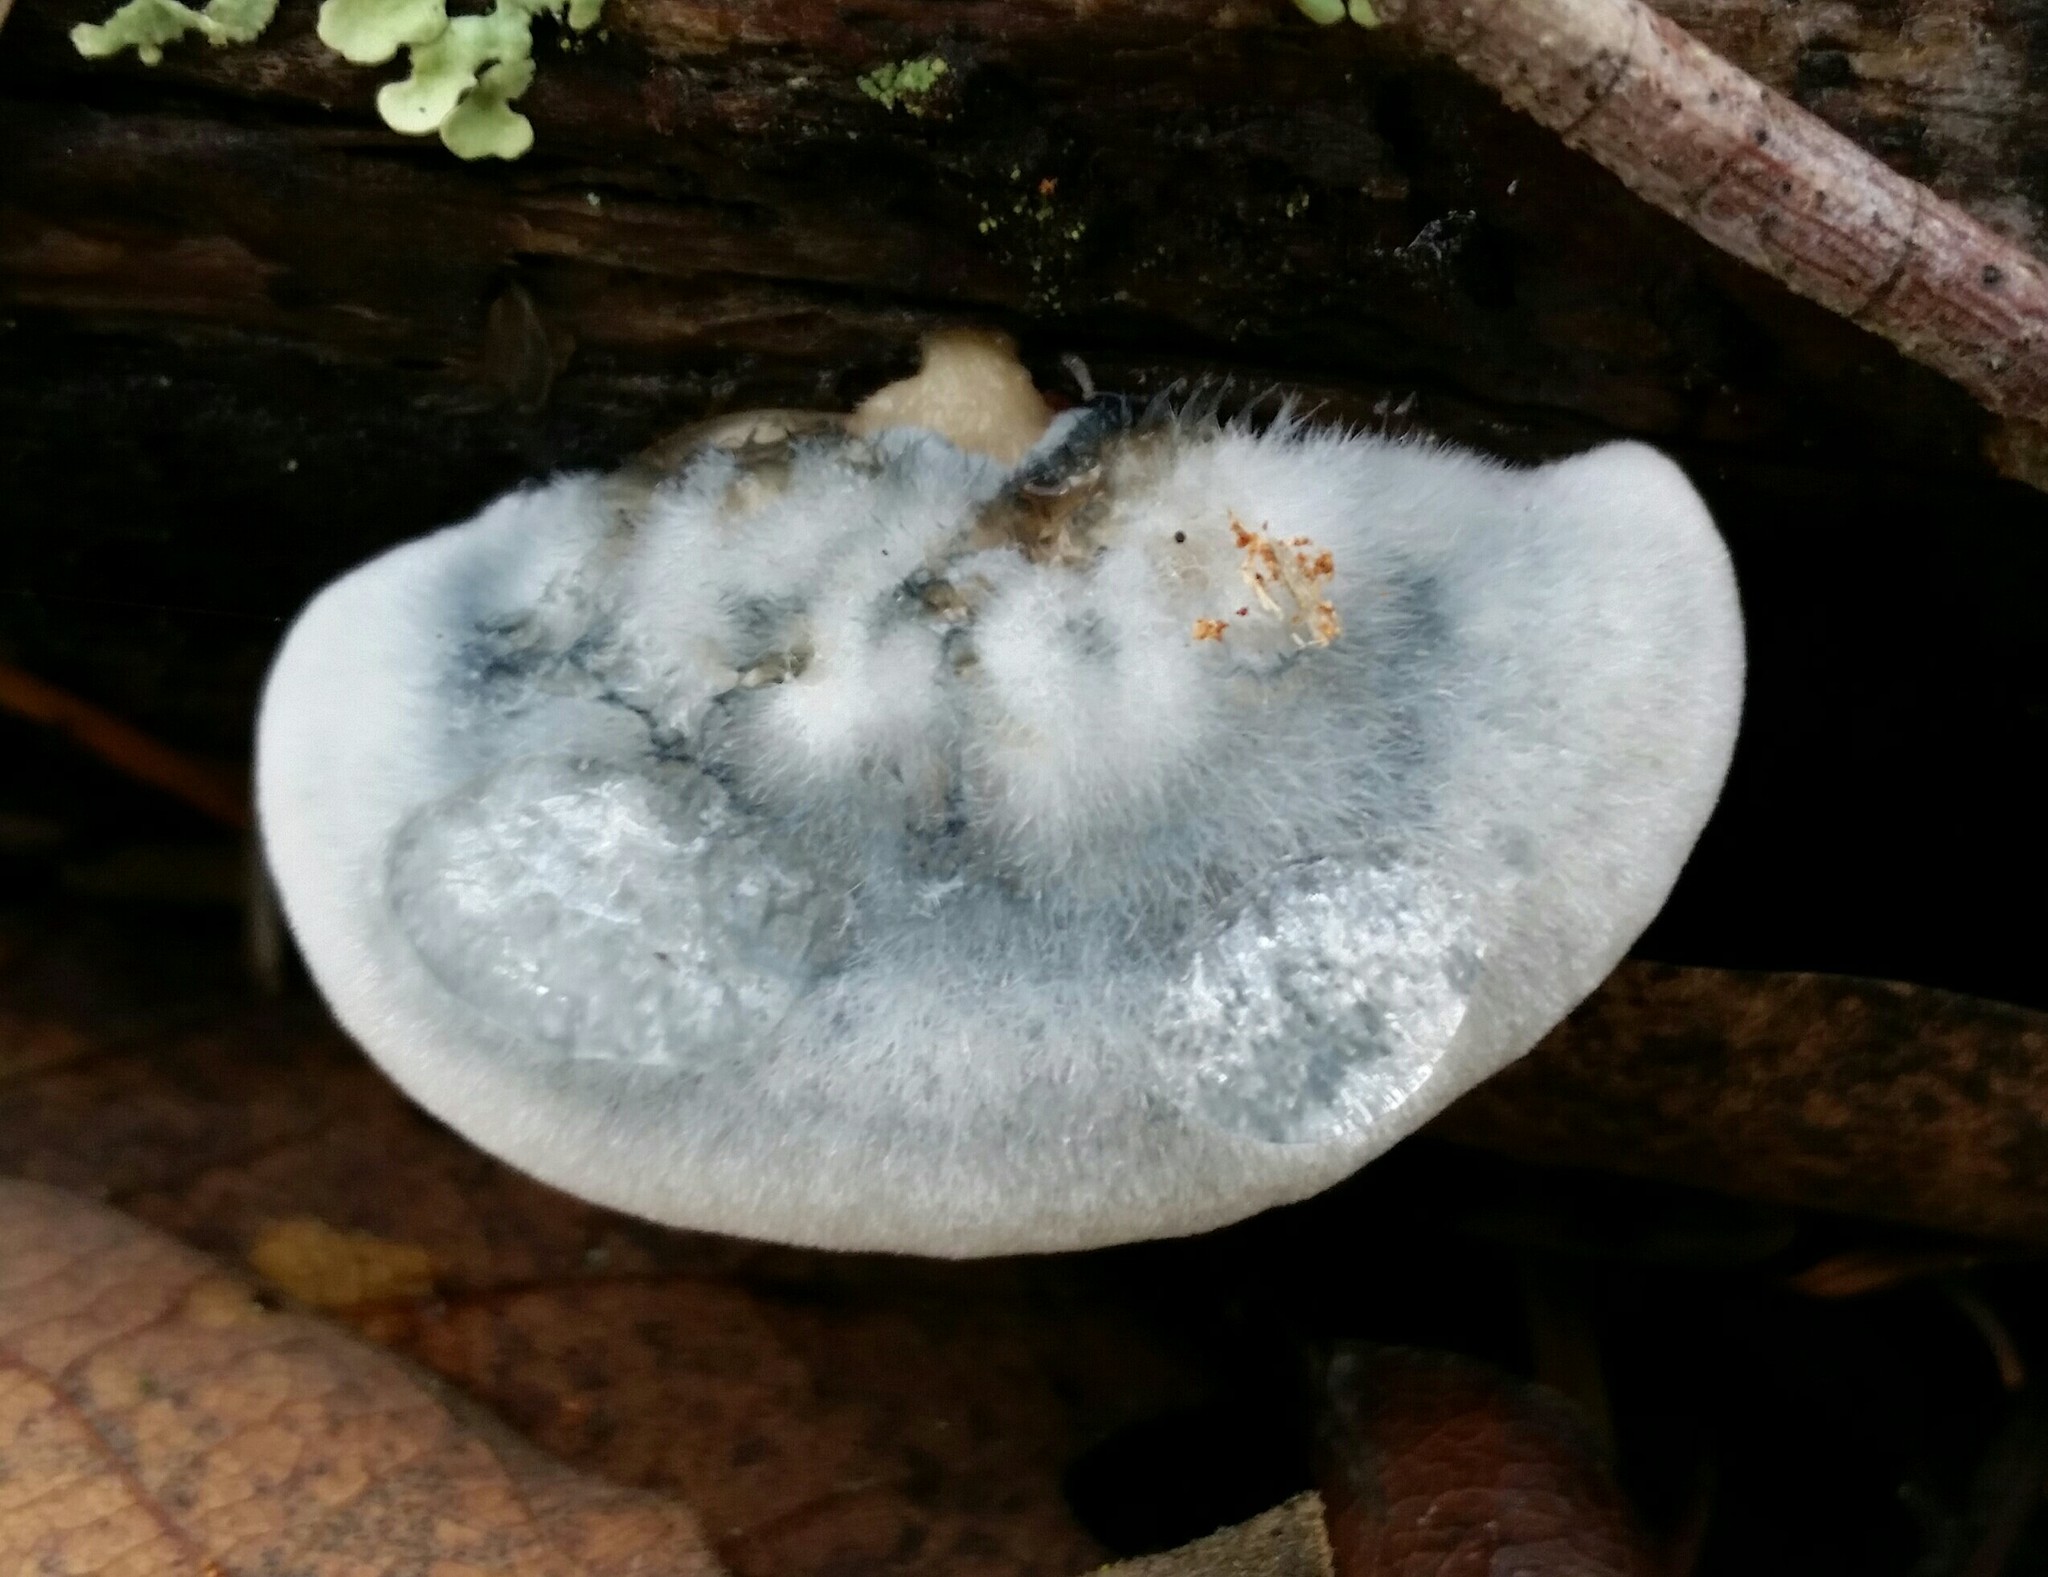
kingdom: Fungi
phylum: Basidiomycota
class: Agaricomycetes
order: Polyporales
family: Polyporaceae
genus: Cyanosporus
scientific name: Cyanosporus caesius
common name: Blue cheese polypore
